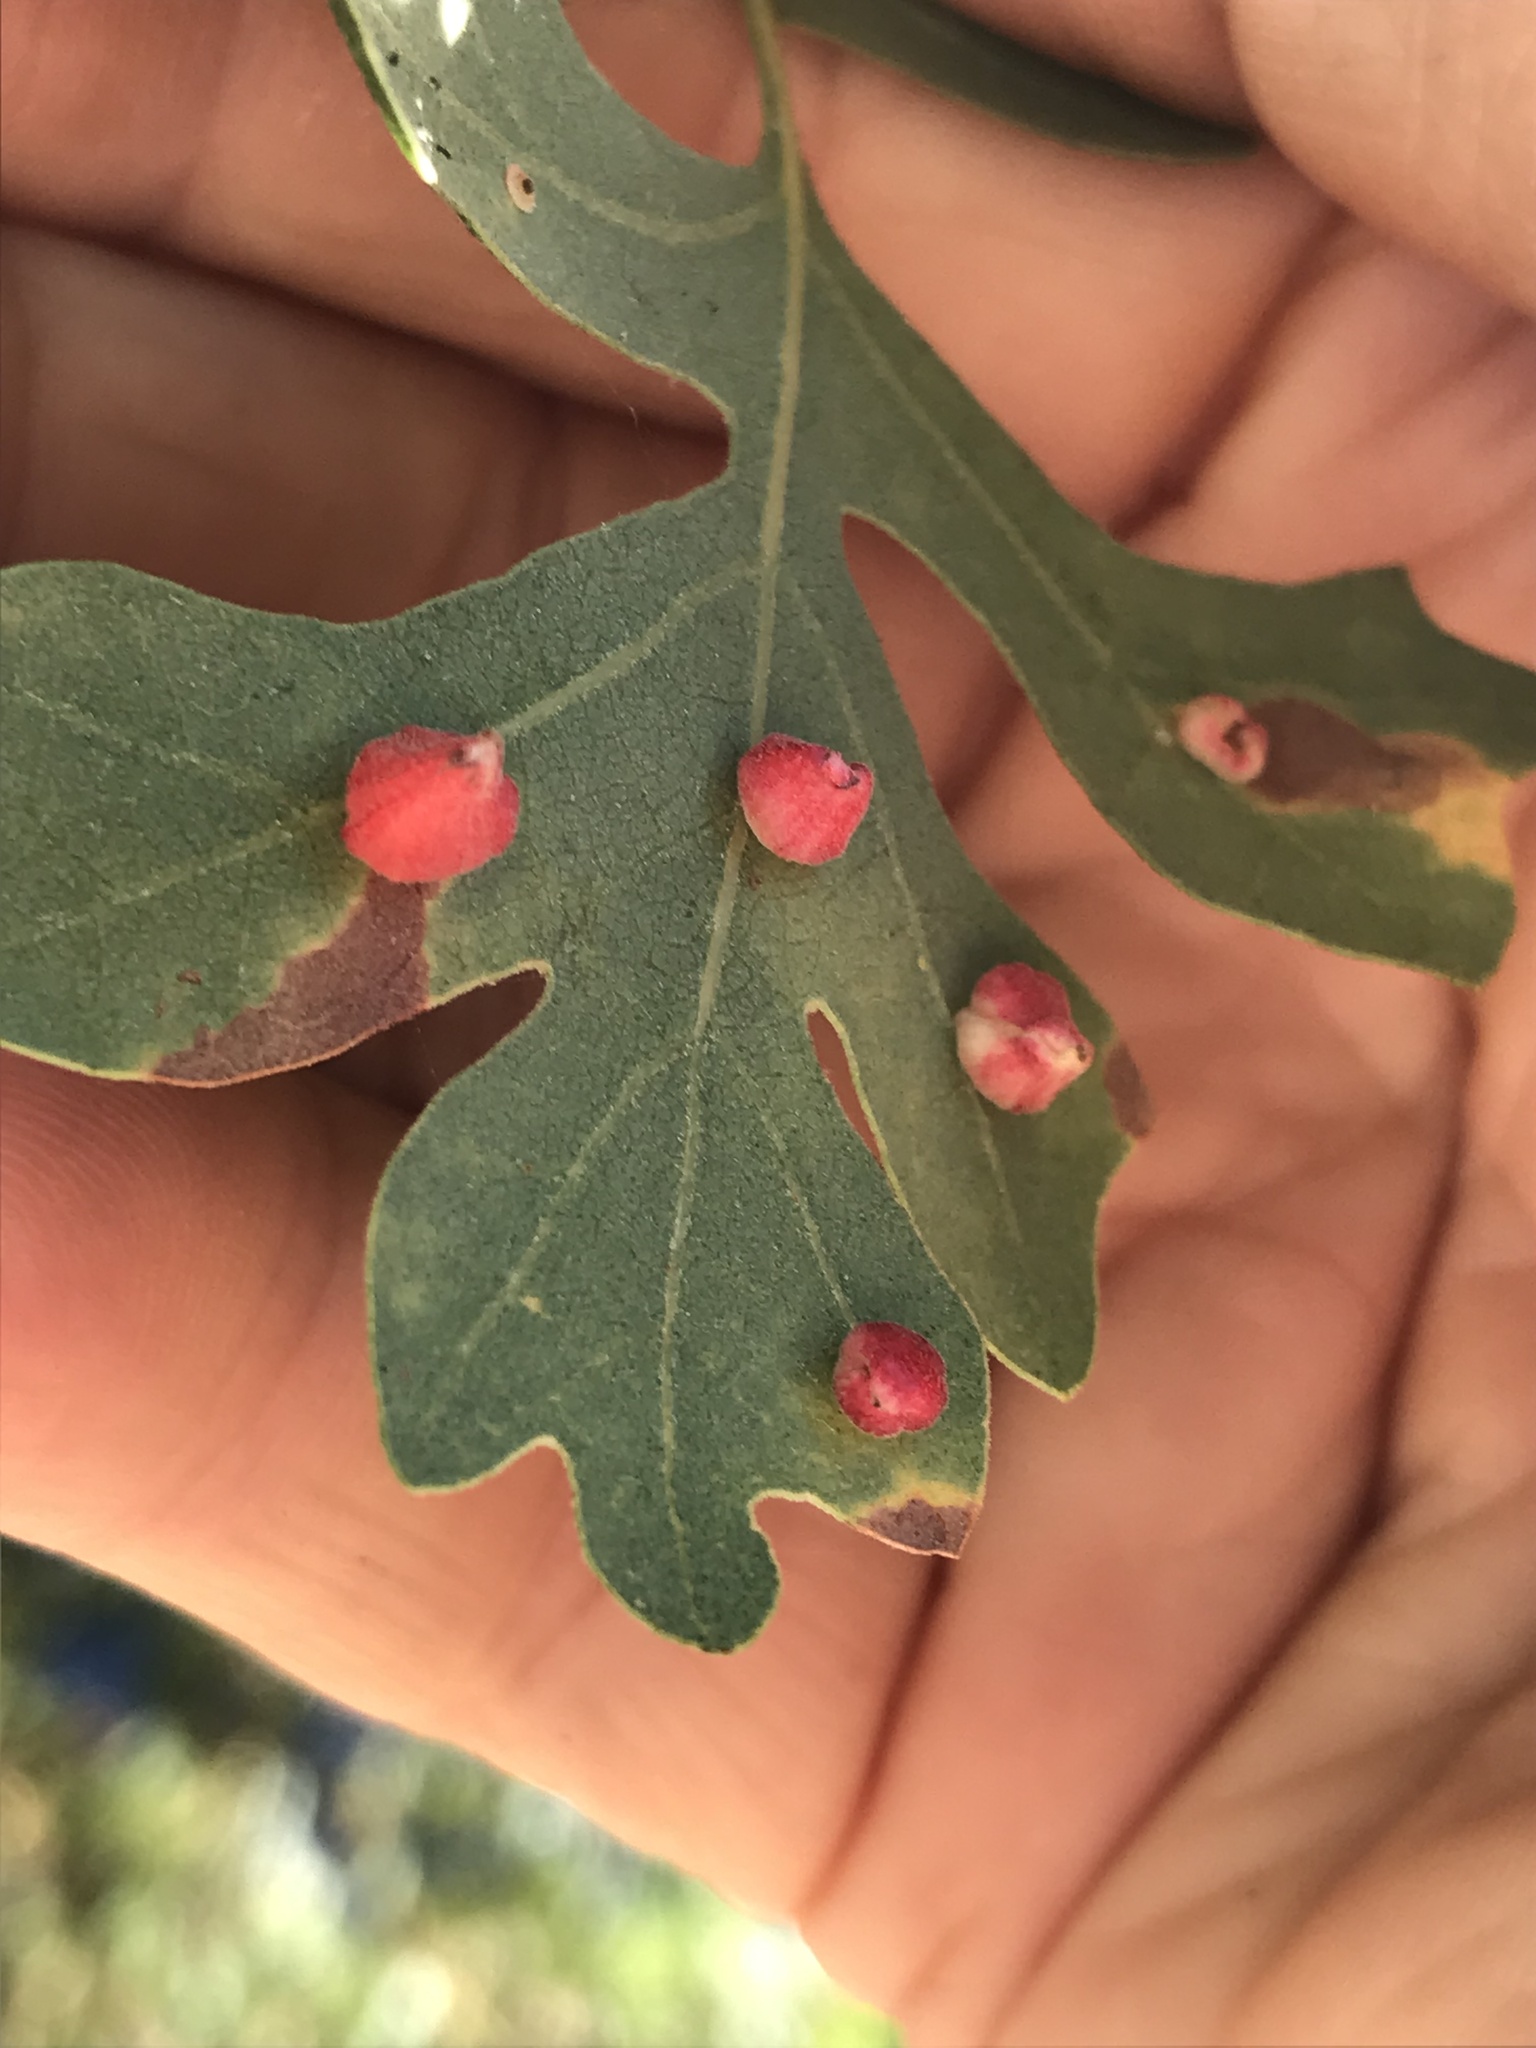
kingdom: Animalia
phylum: Arthropoda
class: Insecta
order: Hymenoptera
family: Cynipidae
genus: Andricus
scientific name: Andricus
